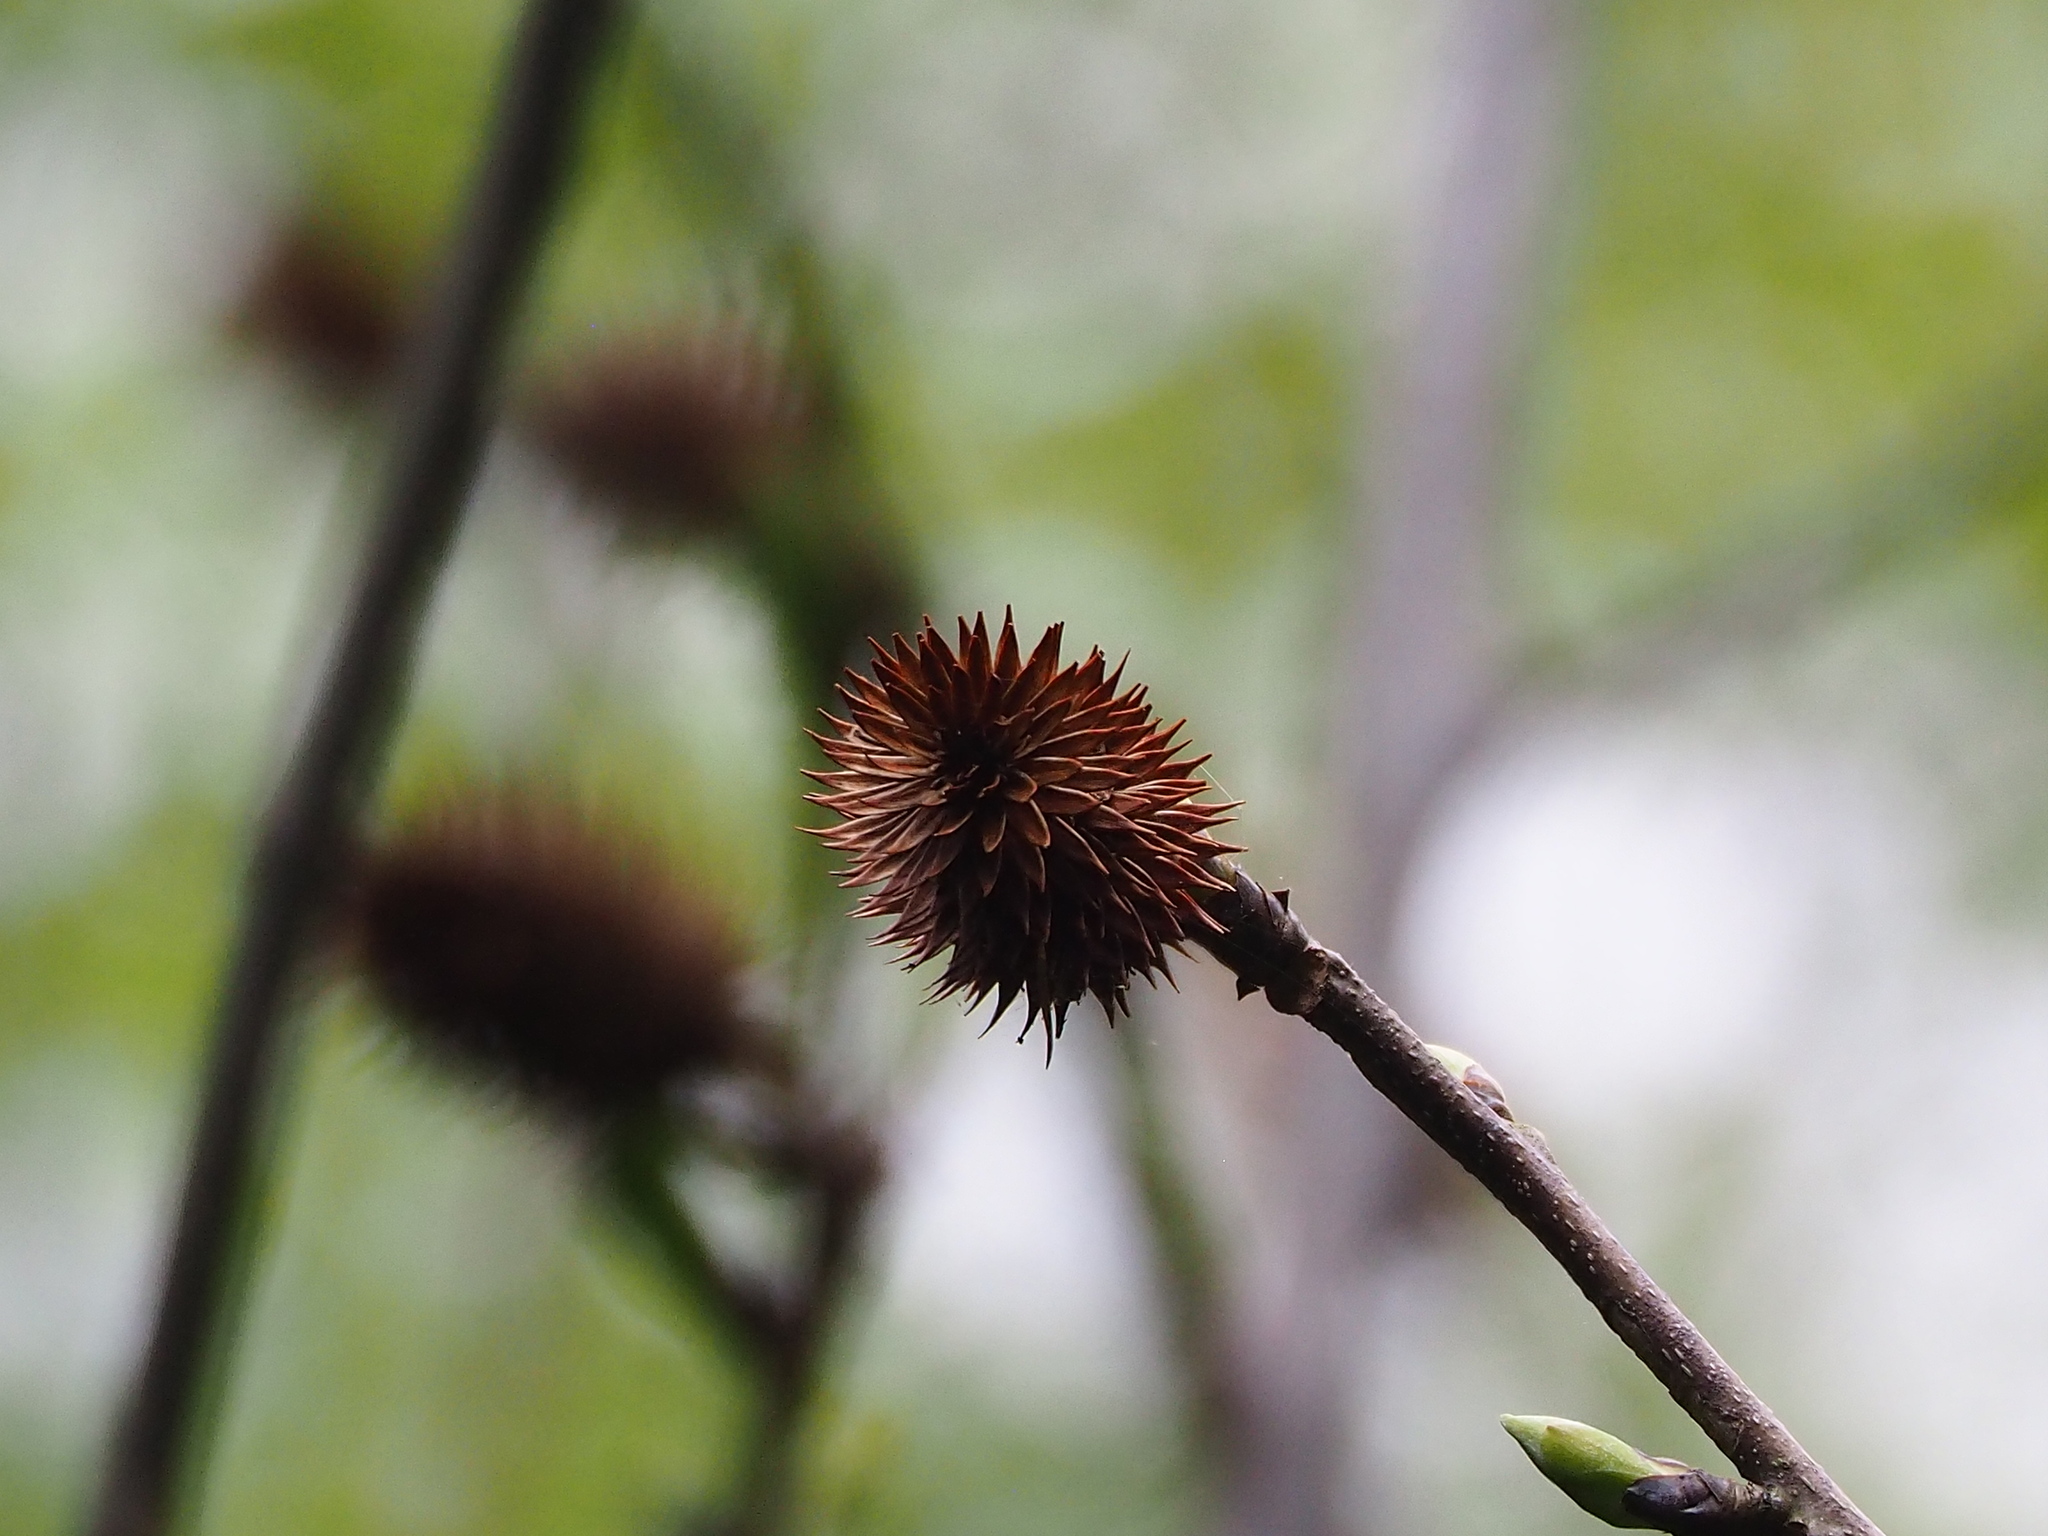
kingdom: Plantae
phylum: Tracheophyta
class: Magnoliopsida
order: Fagales
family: Juglandaceae
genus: Platycarya
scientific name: Platycarya strobilacea
